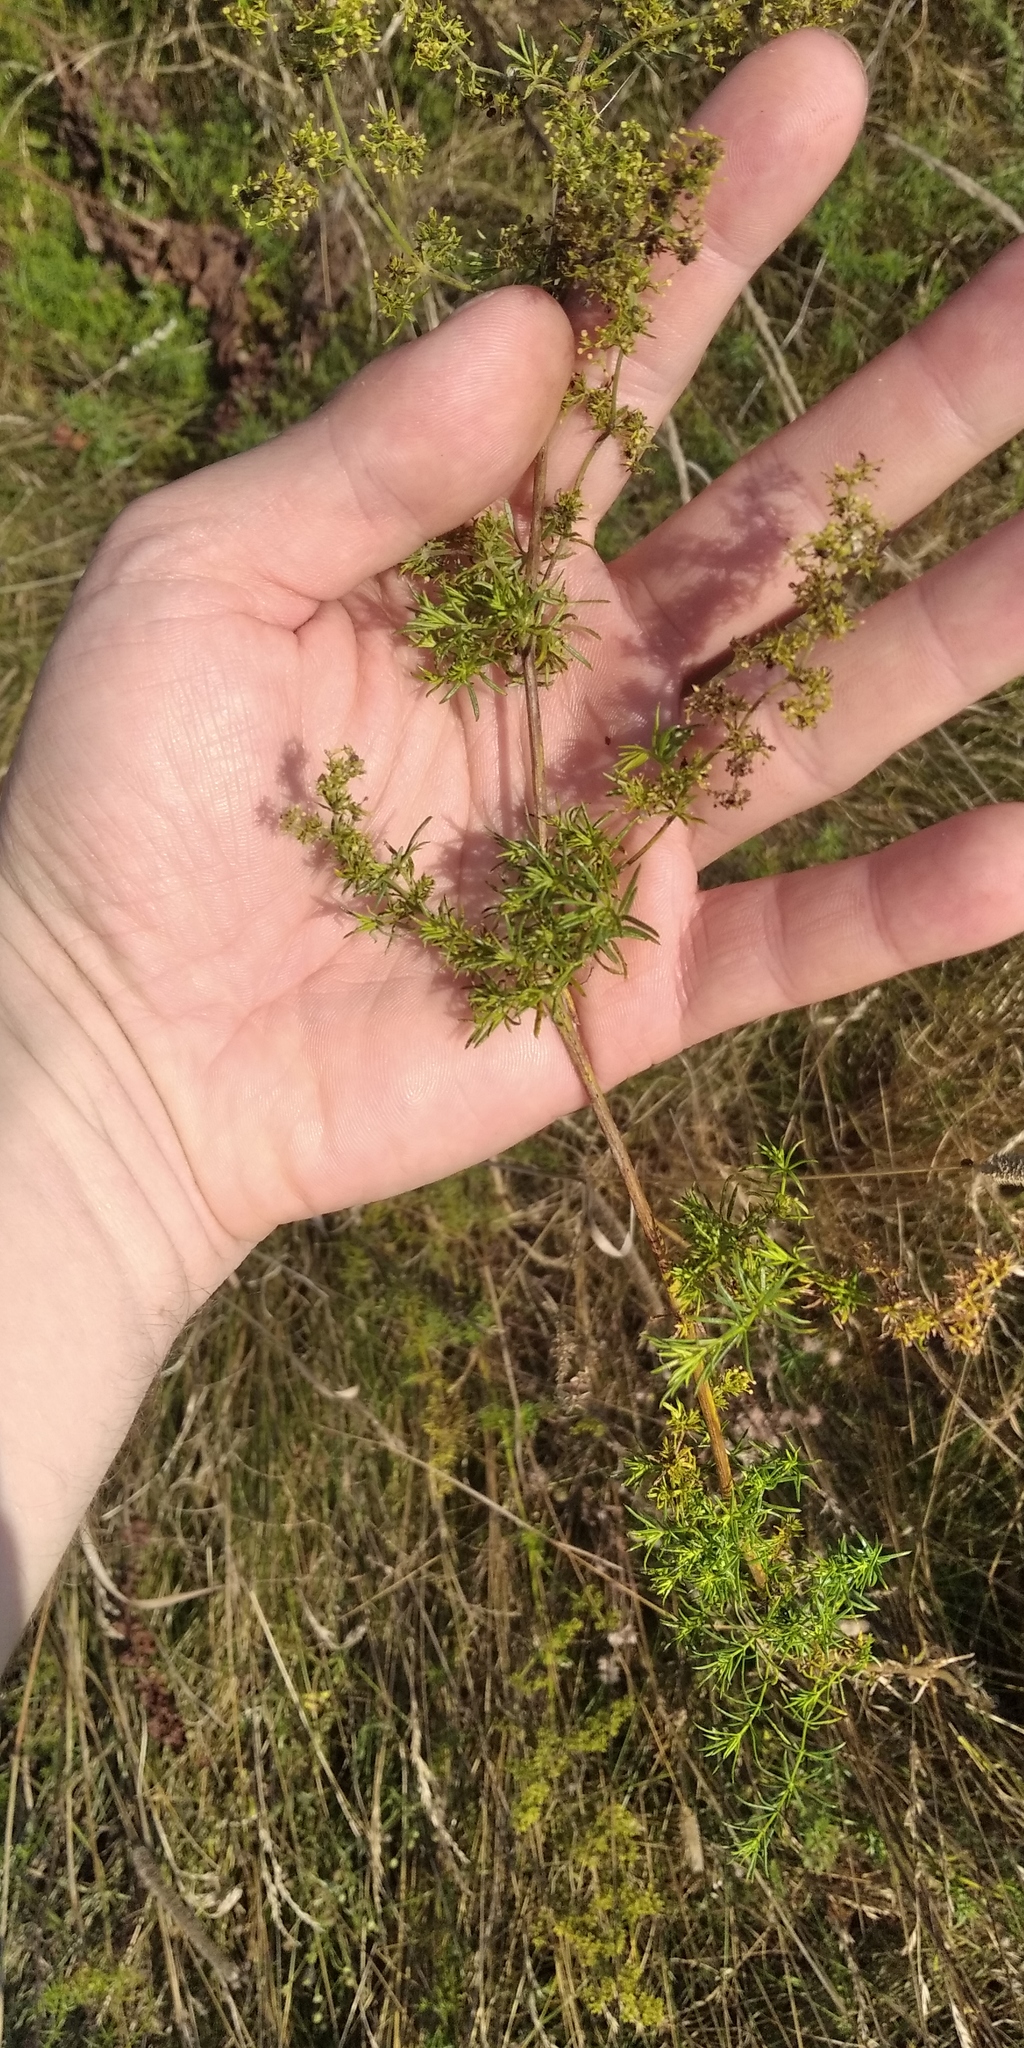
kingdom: Plantae
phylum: Tracheophyta
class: Magnoliopsida
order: Gentianales
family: Rubiaceae
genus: Galium
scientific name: Galium verum
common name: Lady's bedstraw
